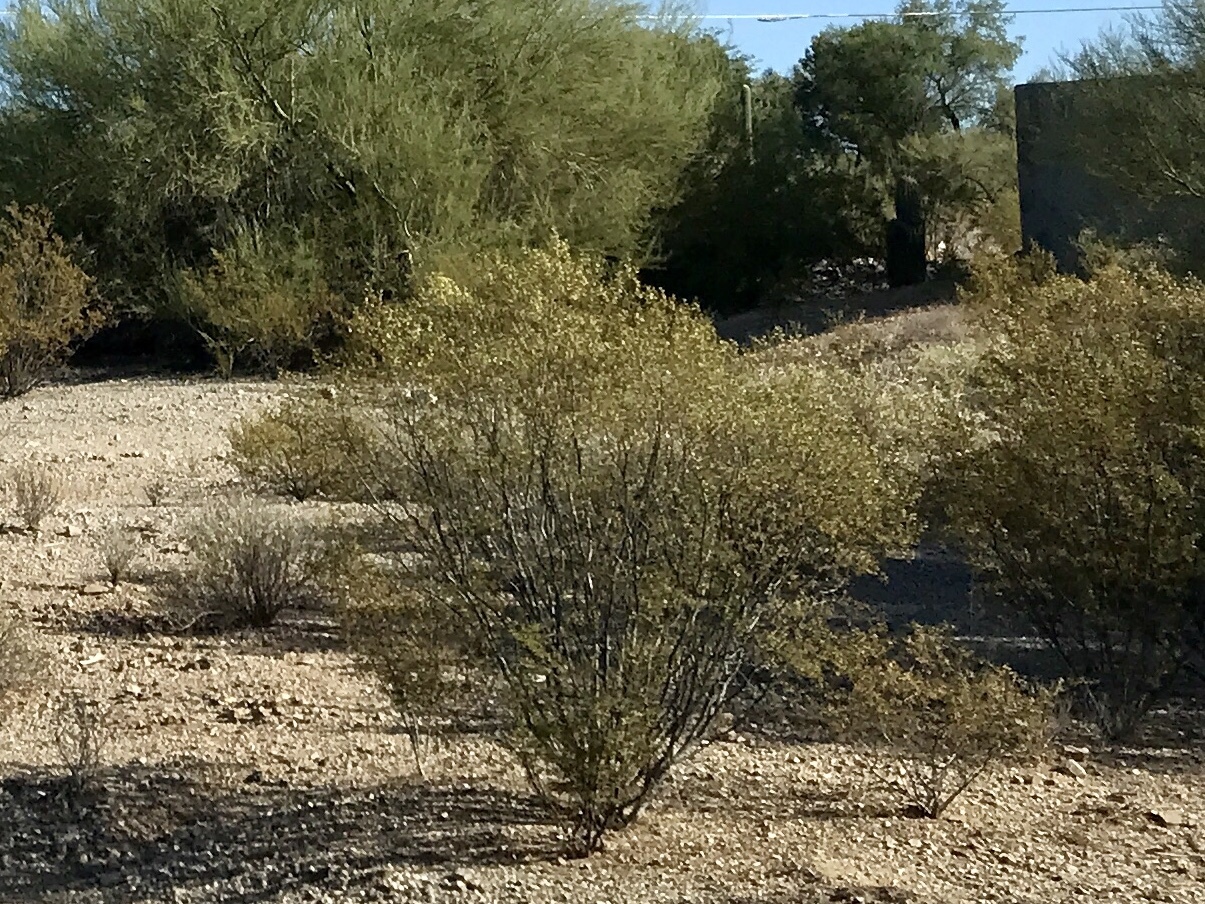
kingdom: Plantae
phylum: Tracheophyta
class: Magnoliopsida
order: Zygophyllales
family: Zygophyllaceae
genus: Larrea
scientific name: Larrea tridentata
